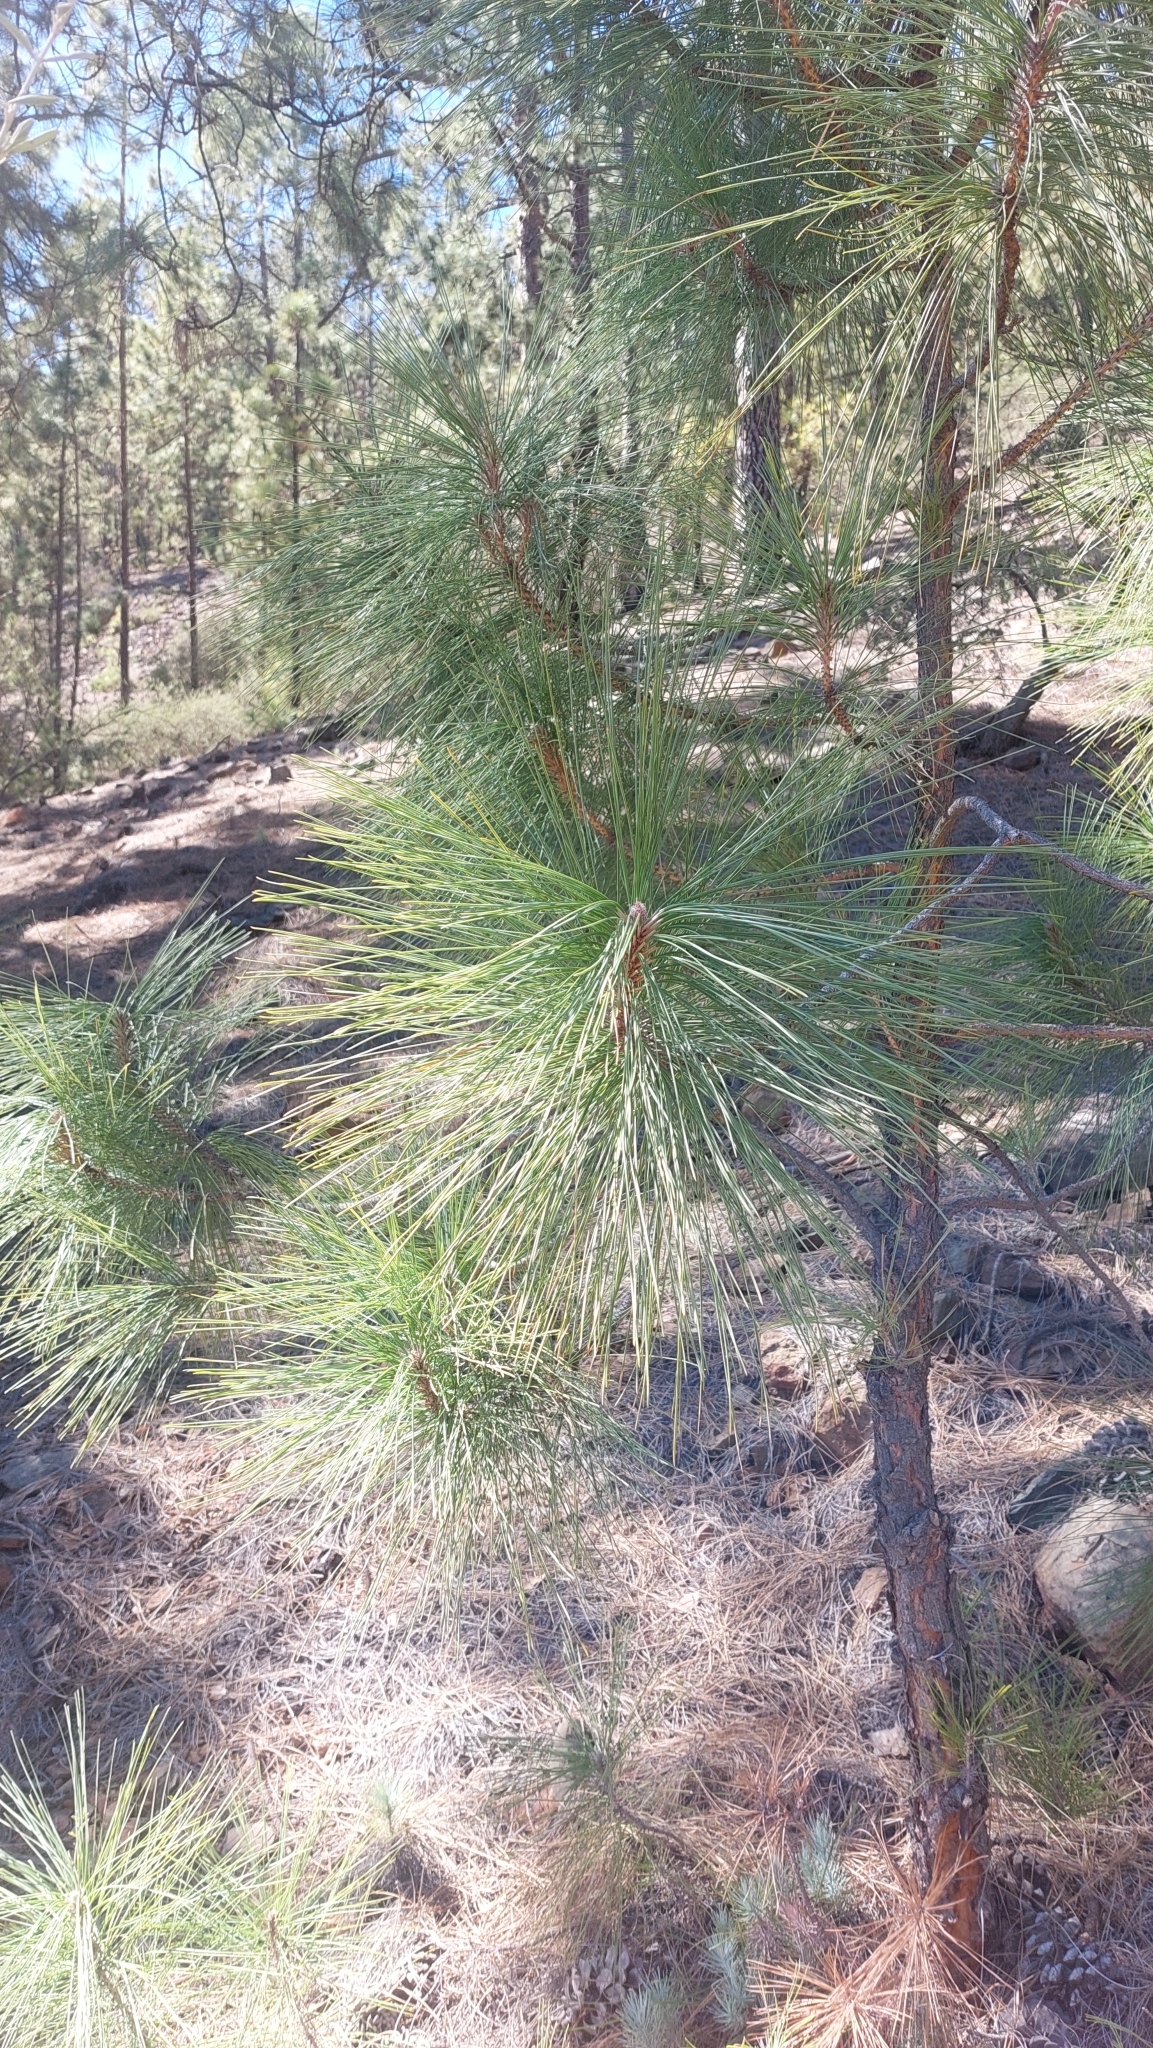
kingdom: Plantae
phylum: Tracheophyta
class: Pinopsida
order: Pinales
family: Pinaceae
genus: Pinus
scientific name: Pinus canariensis
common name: Canary islands pine
